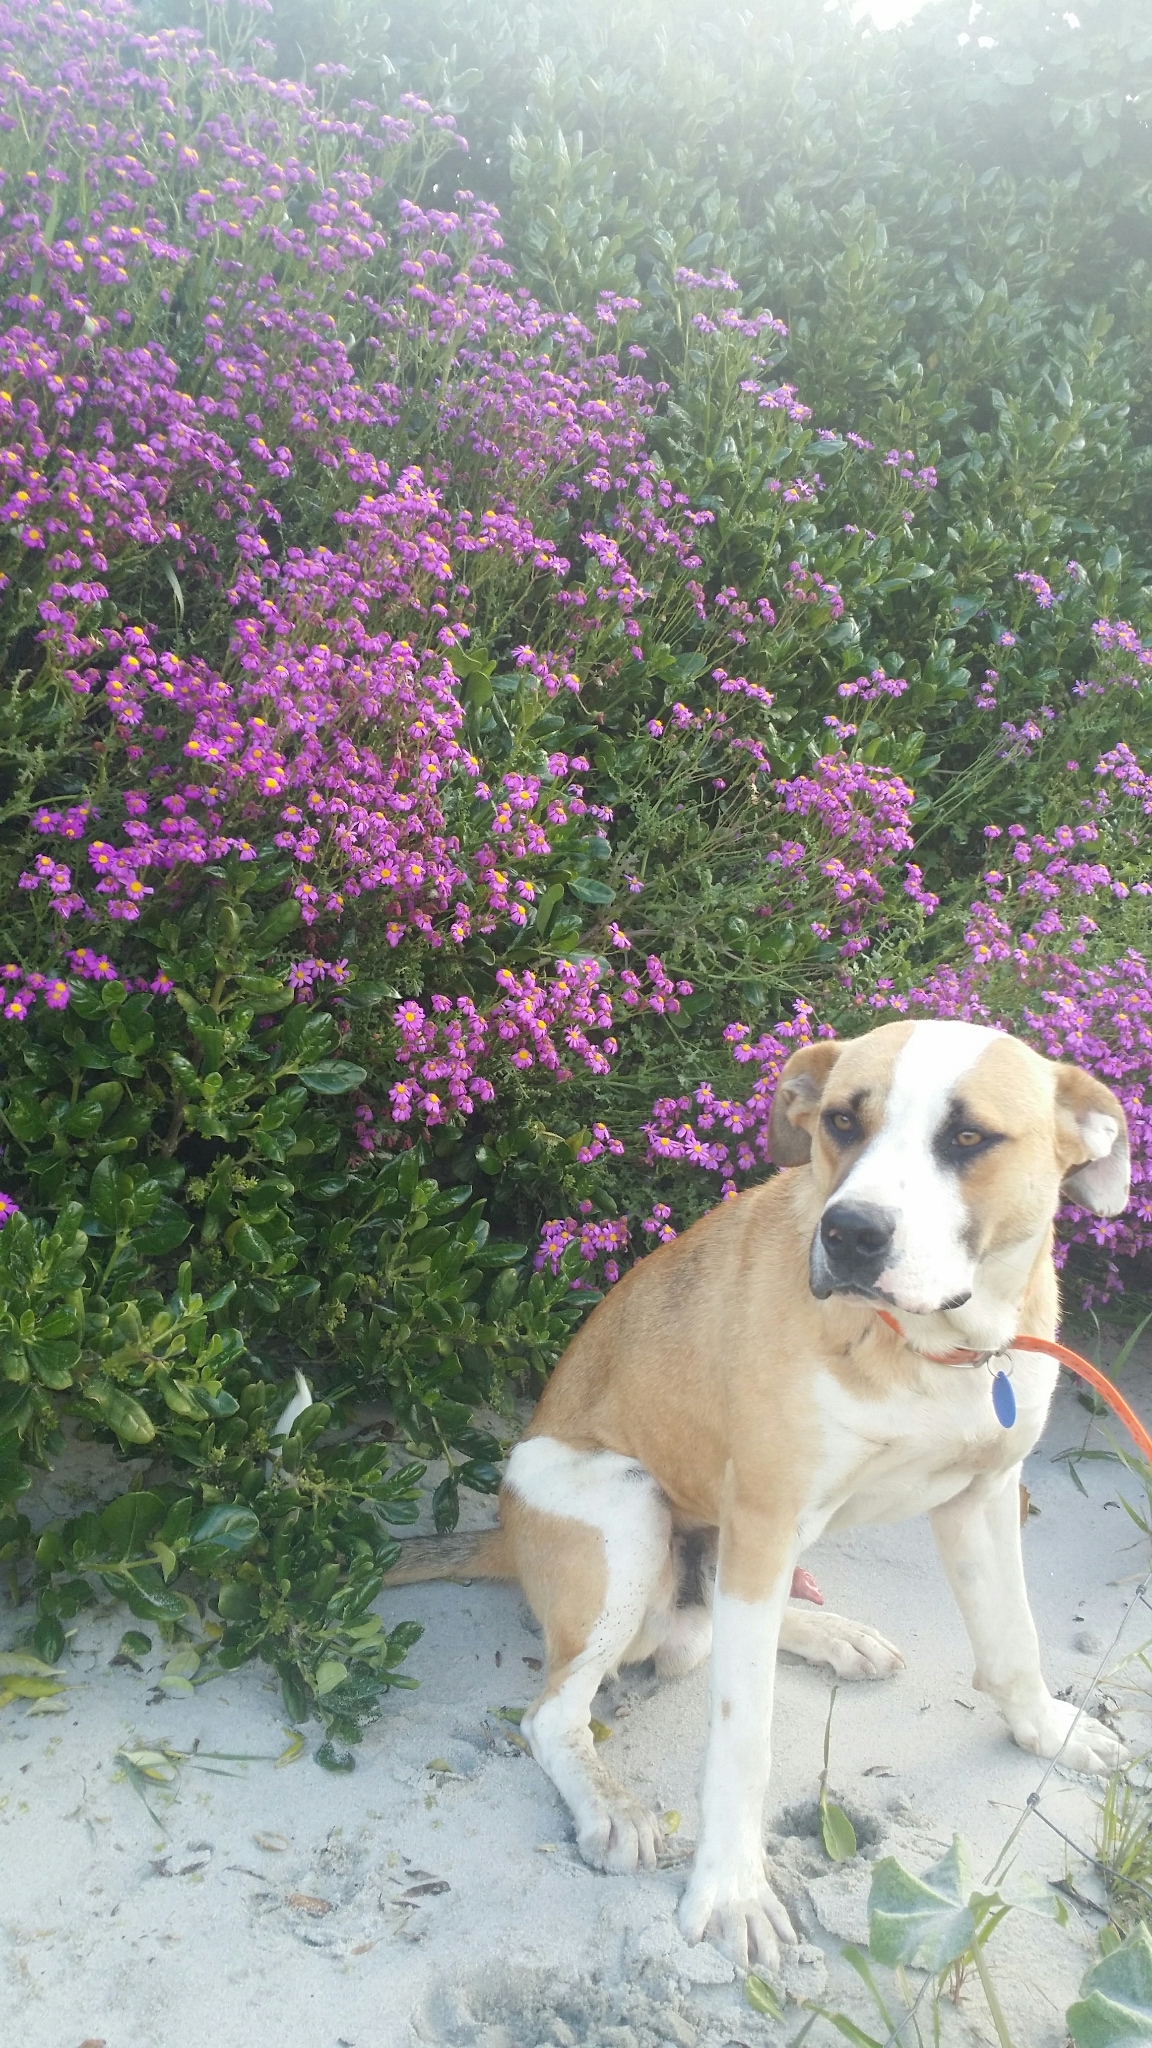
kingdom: Plantae
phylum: Tracheophyta
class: Magnoliopsida
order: Asterales
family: Asteraceae
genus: Senecio
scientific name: Senecio elegans
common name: Purple groundsel
